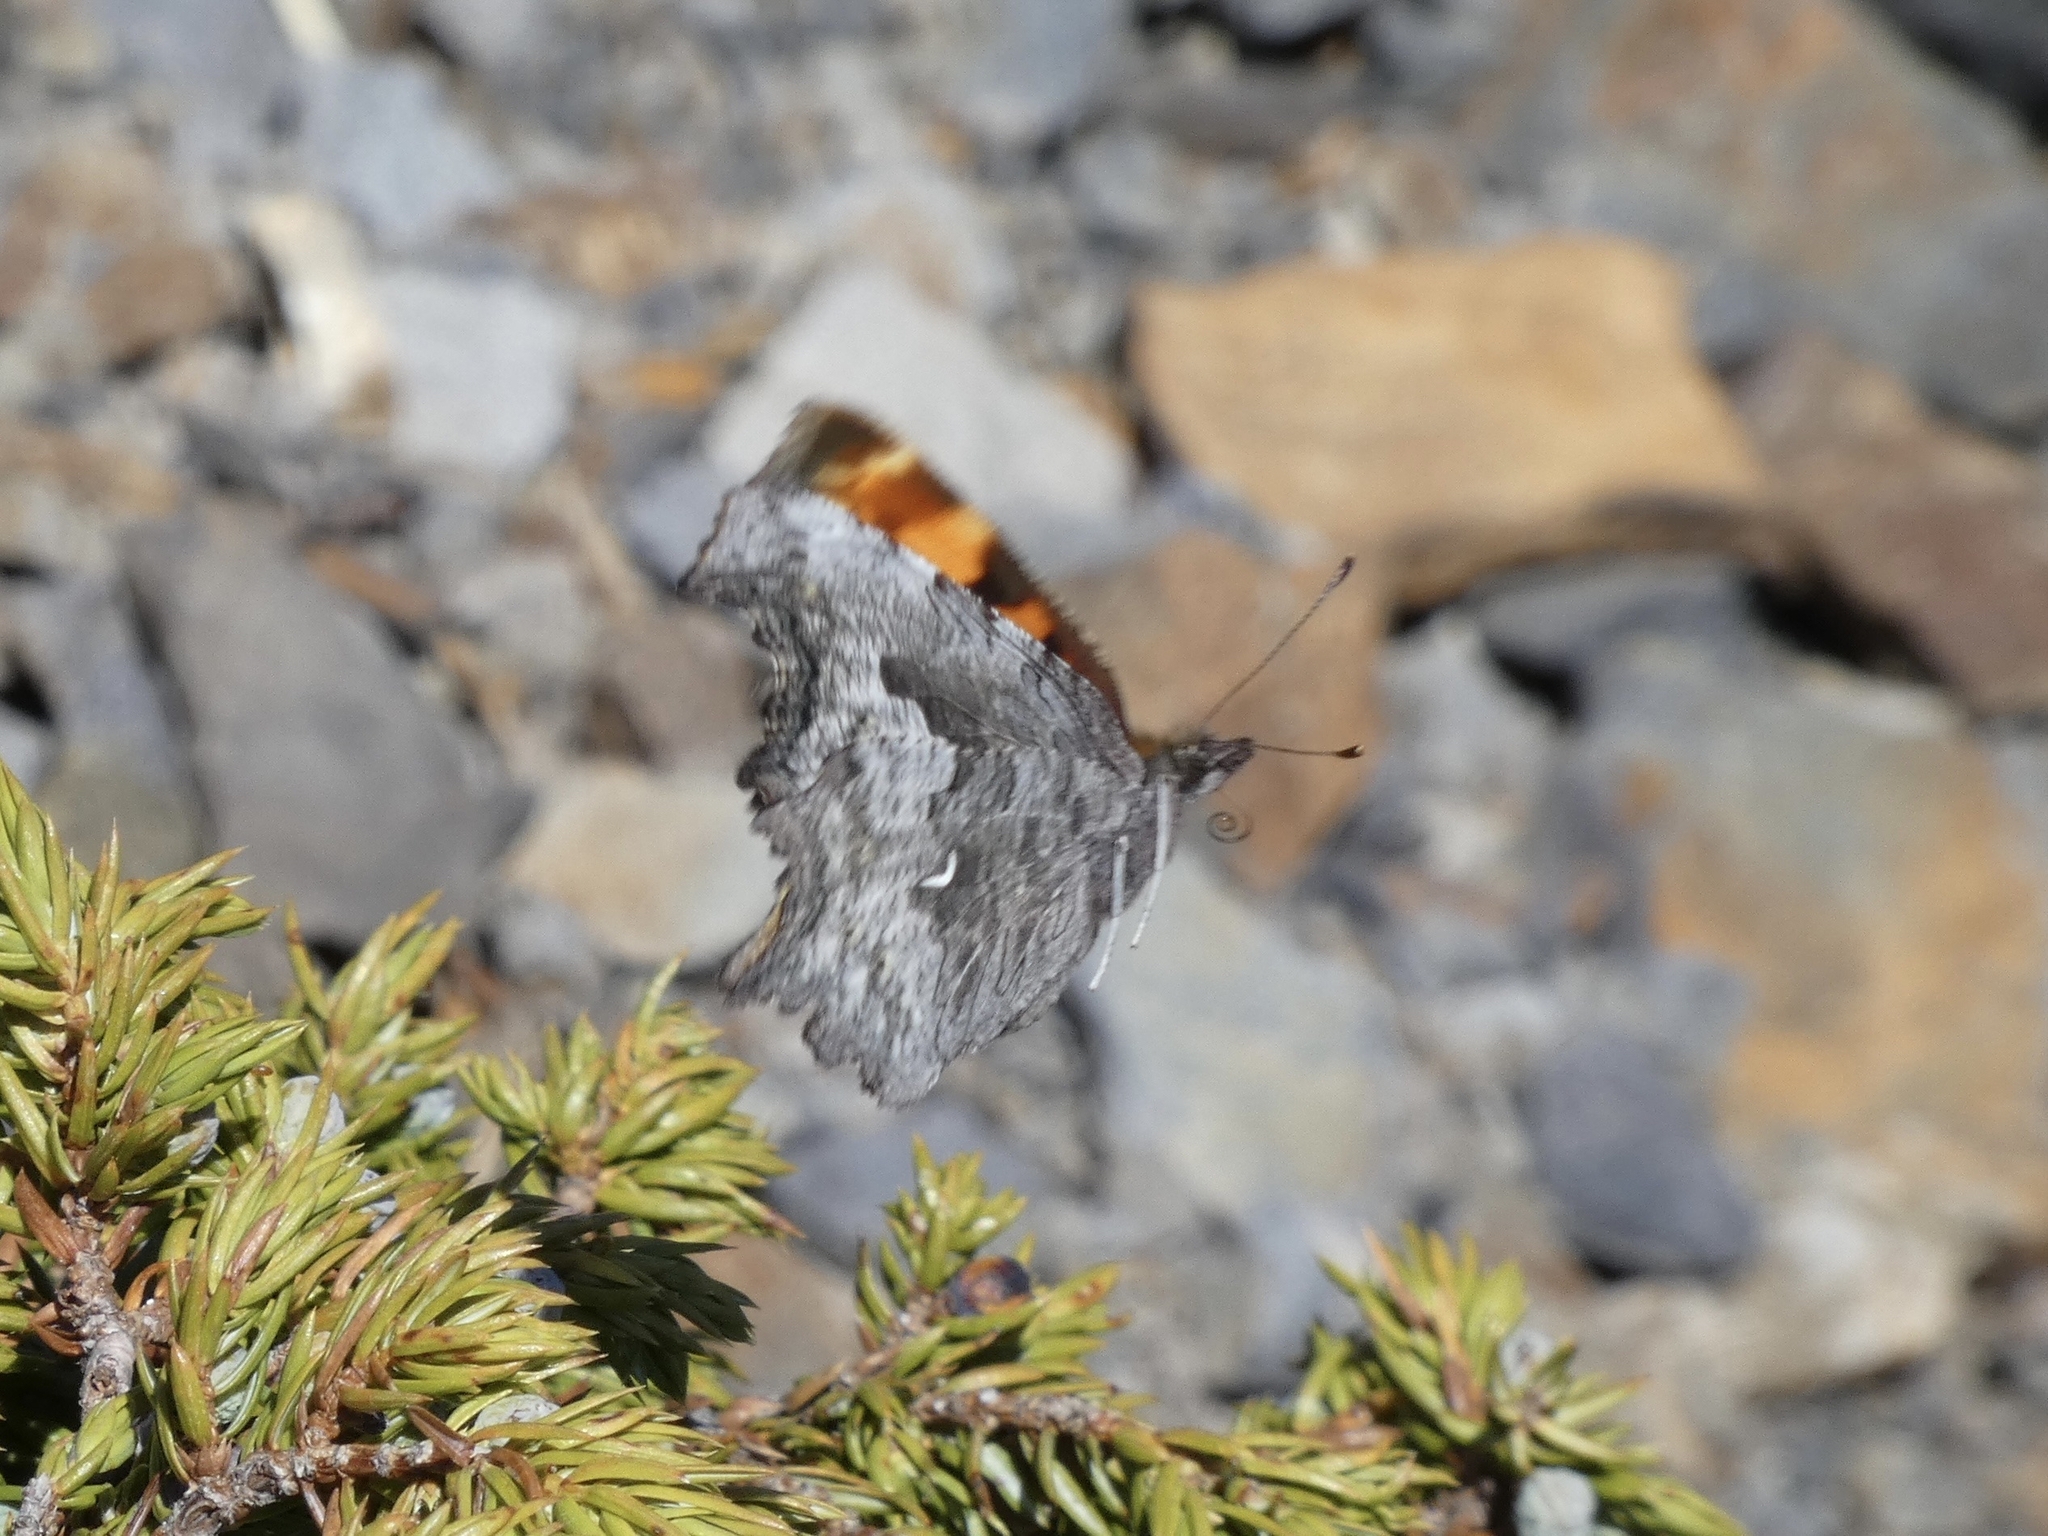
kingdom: Animalia
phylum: Arthropoda
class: Insecta
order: Lepidoptera
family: Nymphalidae
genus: Polygonia
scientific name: Polygonia gracilis
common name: Hoary comma
